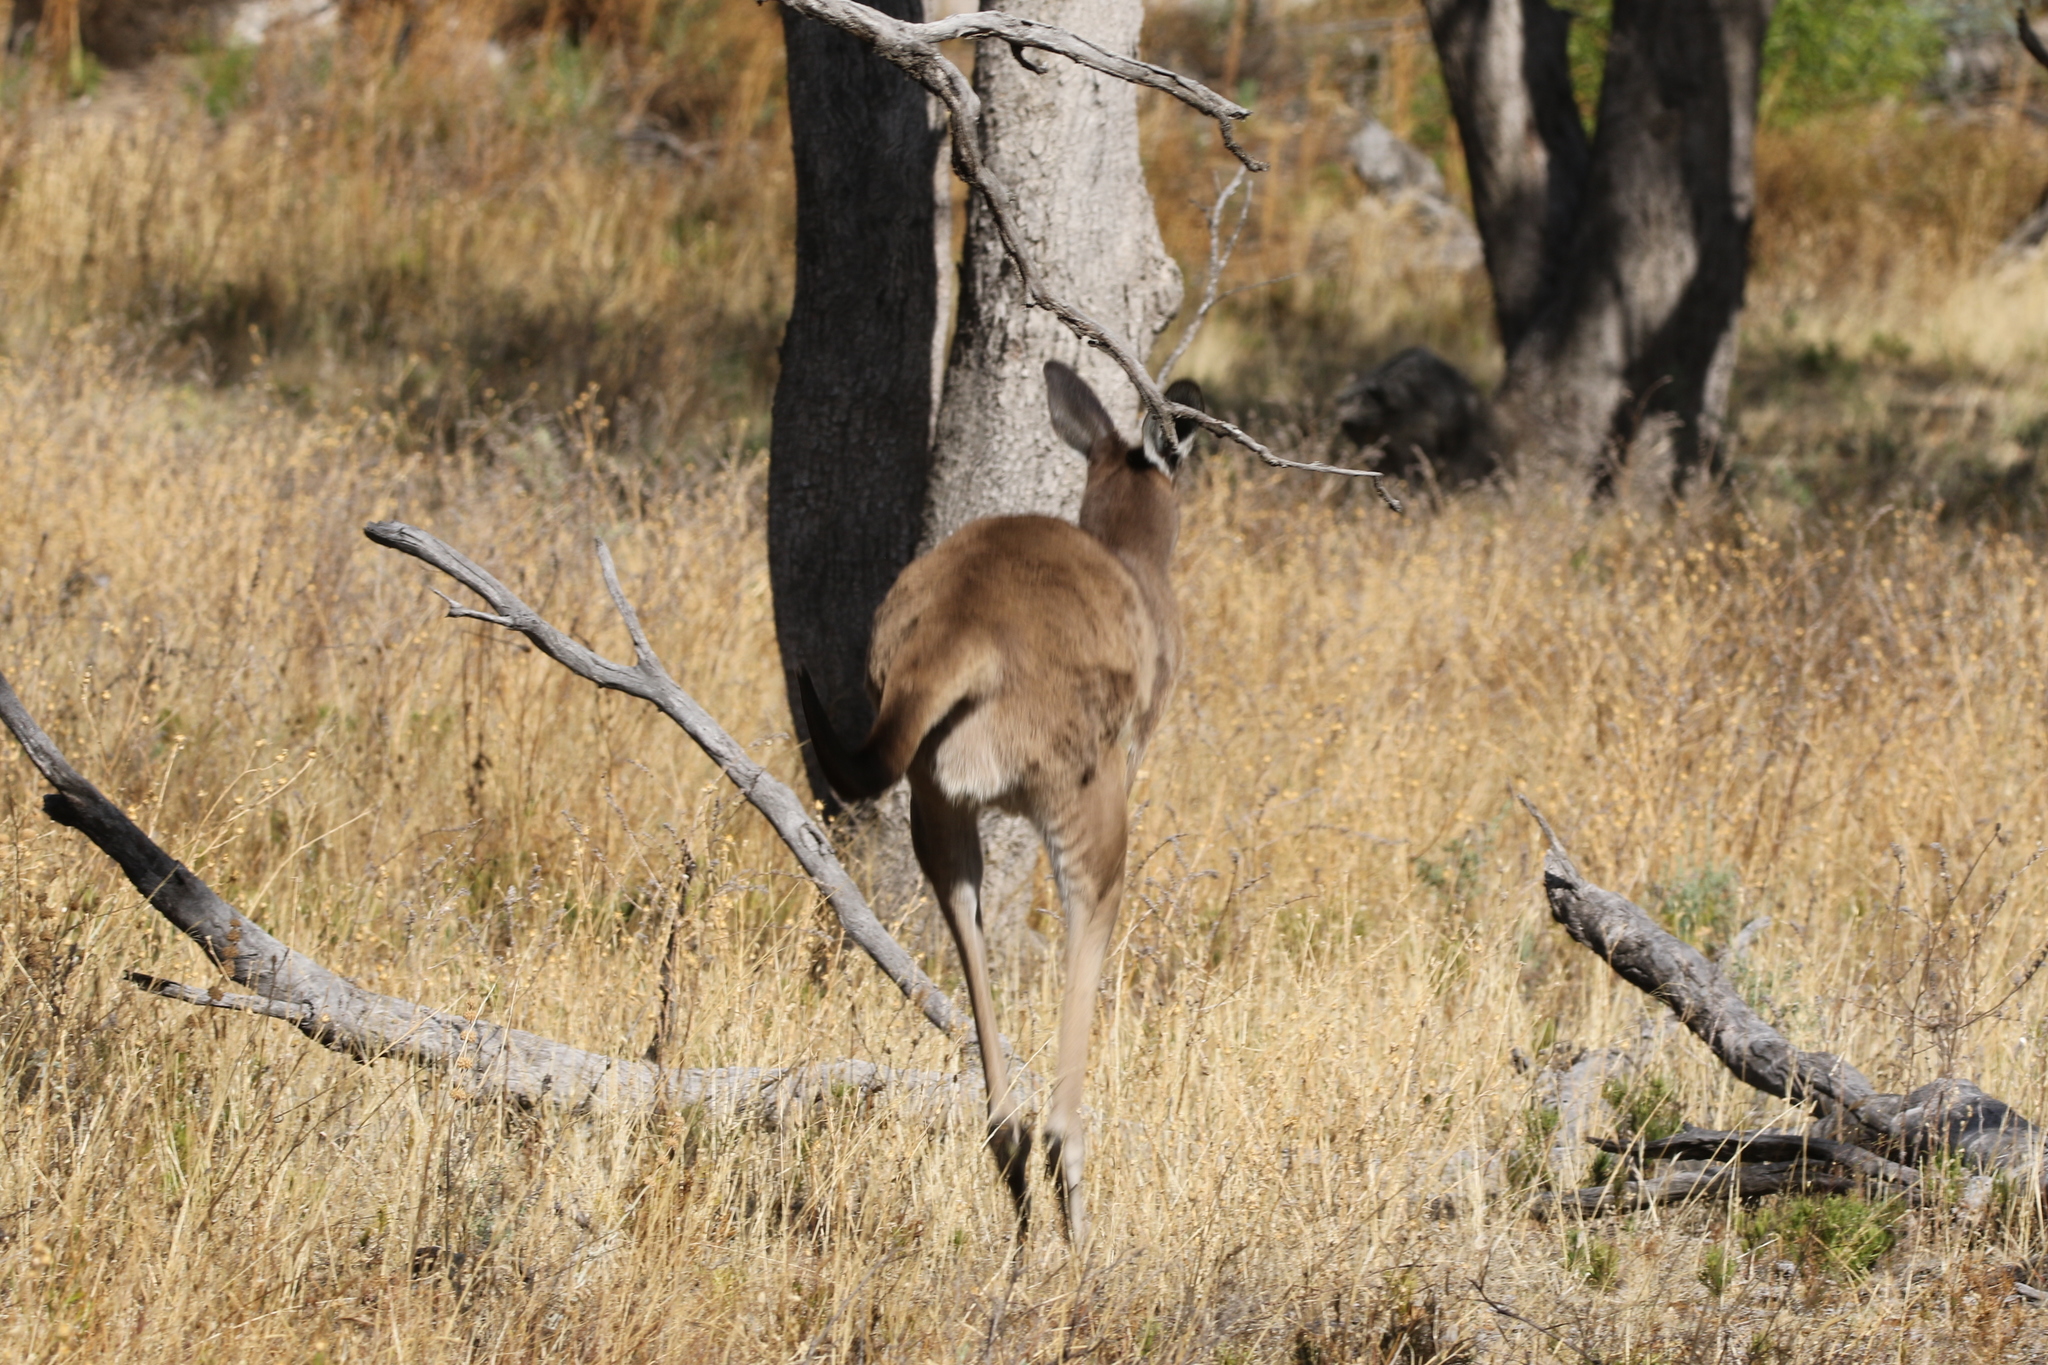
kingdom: Animalia
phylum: Chordata
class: Mammalia
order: Diprotodontia
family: Macropodidae
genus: Macropus
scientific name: Macropus fuliginosus
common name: Western grey kangaroo
